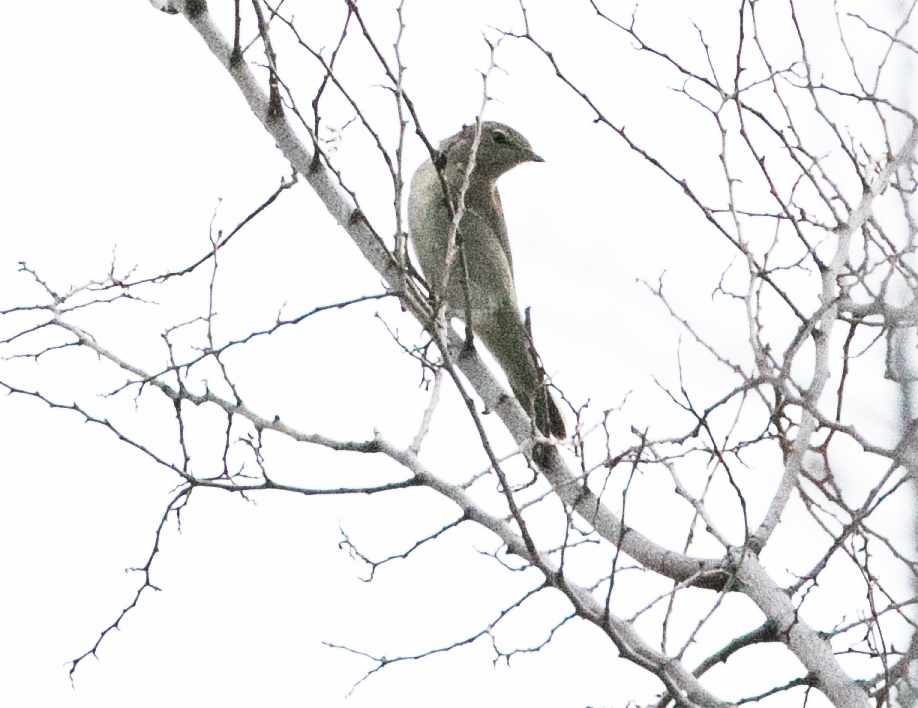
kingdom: Animalia
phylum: Chordata
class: Aves
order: Passeriformes
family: Sylviidae
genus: Sylvia
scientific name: Sylvia borin
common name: Garden warbler
